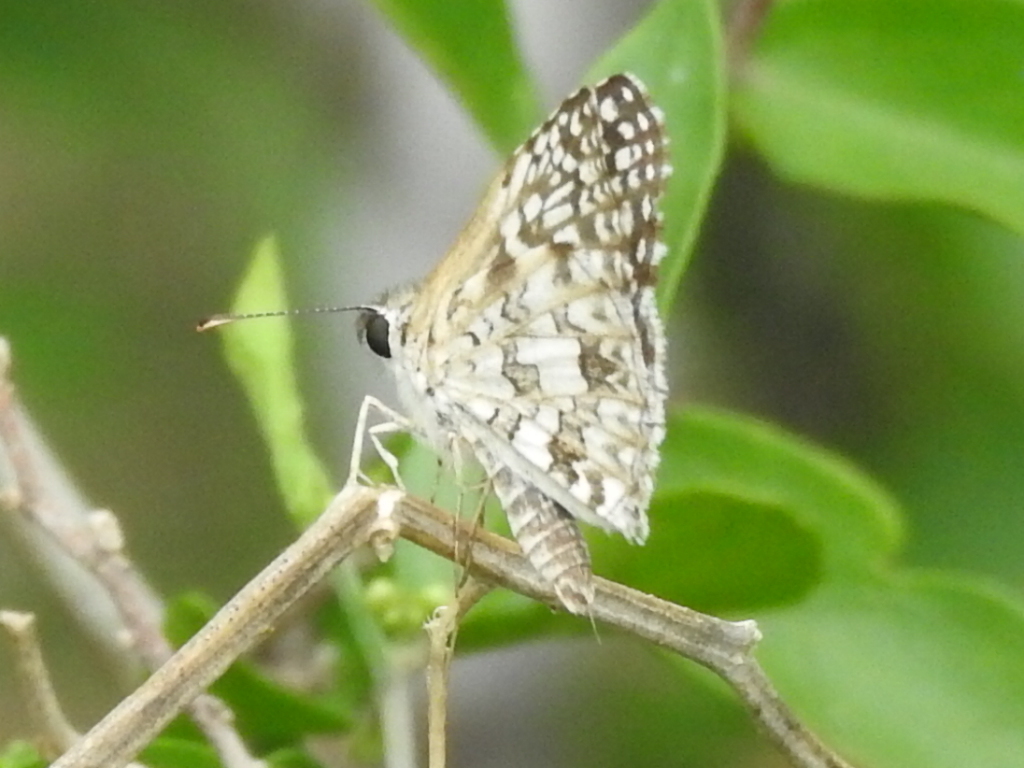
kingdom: Animalia
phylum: Arthropoda
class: Insecta
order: Lepidoptera
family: Hesperiidae
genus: Pyrgus
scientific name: Pyrgus oileus
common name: Tropical checkered-skipper
